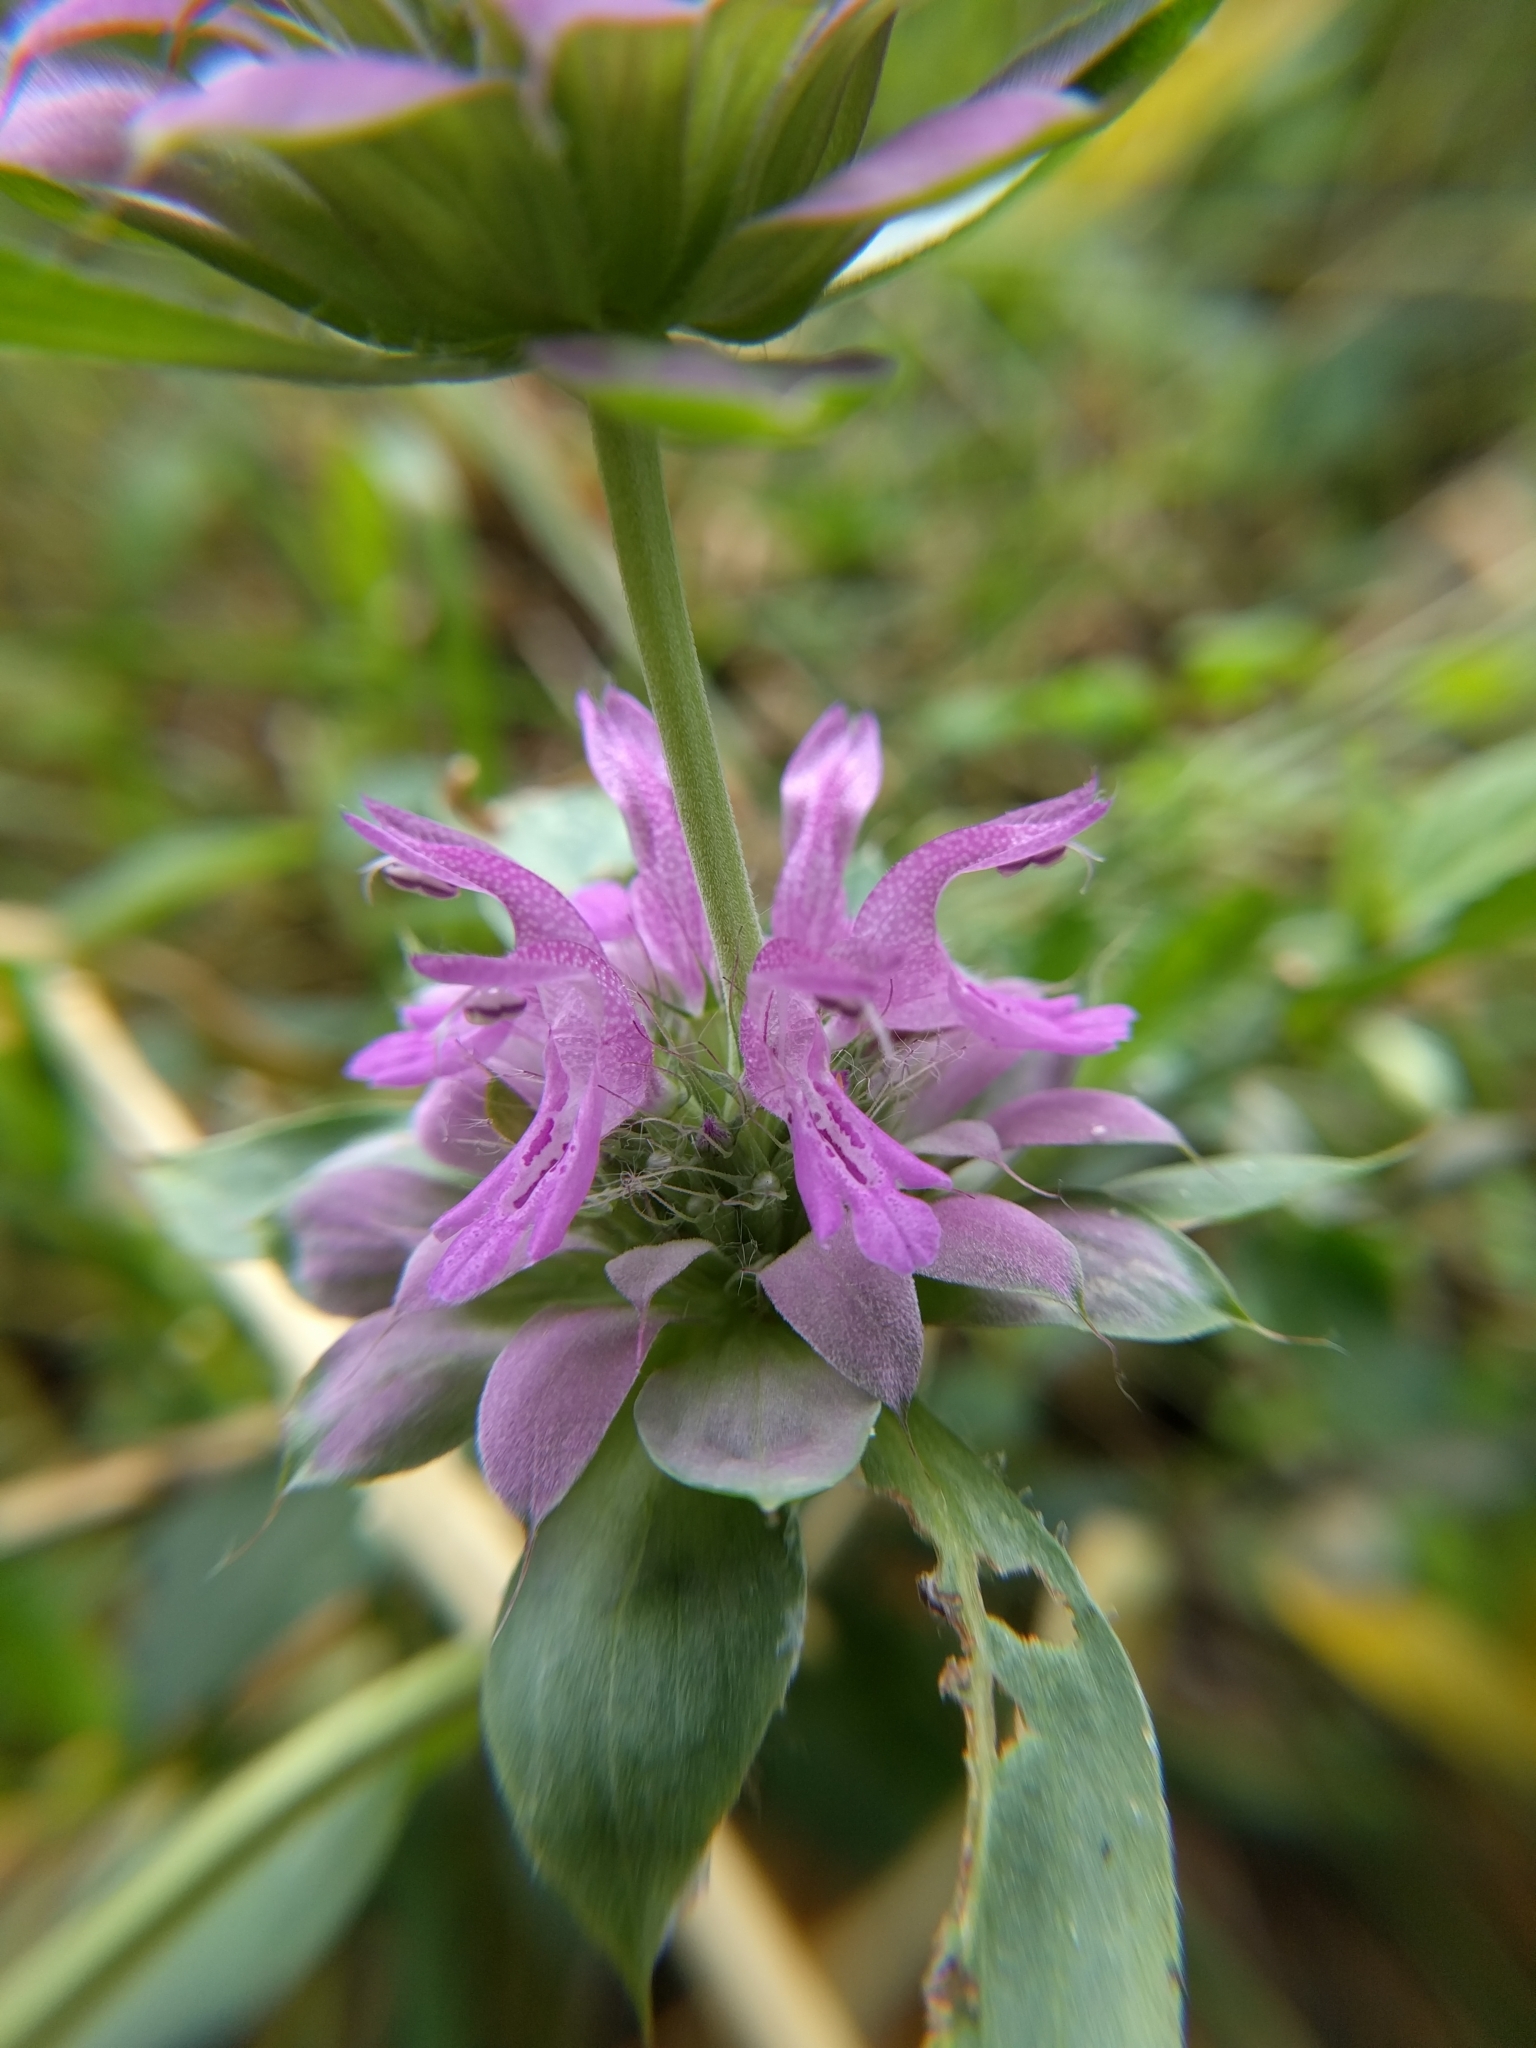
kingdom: Plantae
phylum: Tracheophyta
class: Magnoliopsida
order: Lamiales
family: Lamiaceae
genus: Monarda
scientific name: Monarda citriodora
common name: Lemon beebalm
